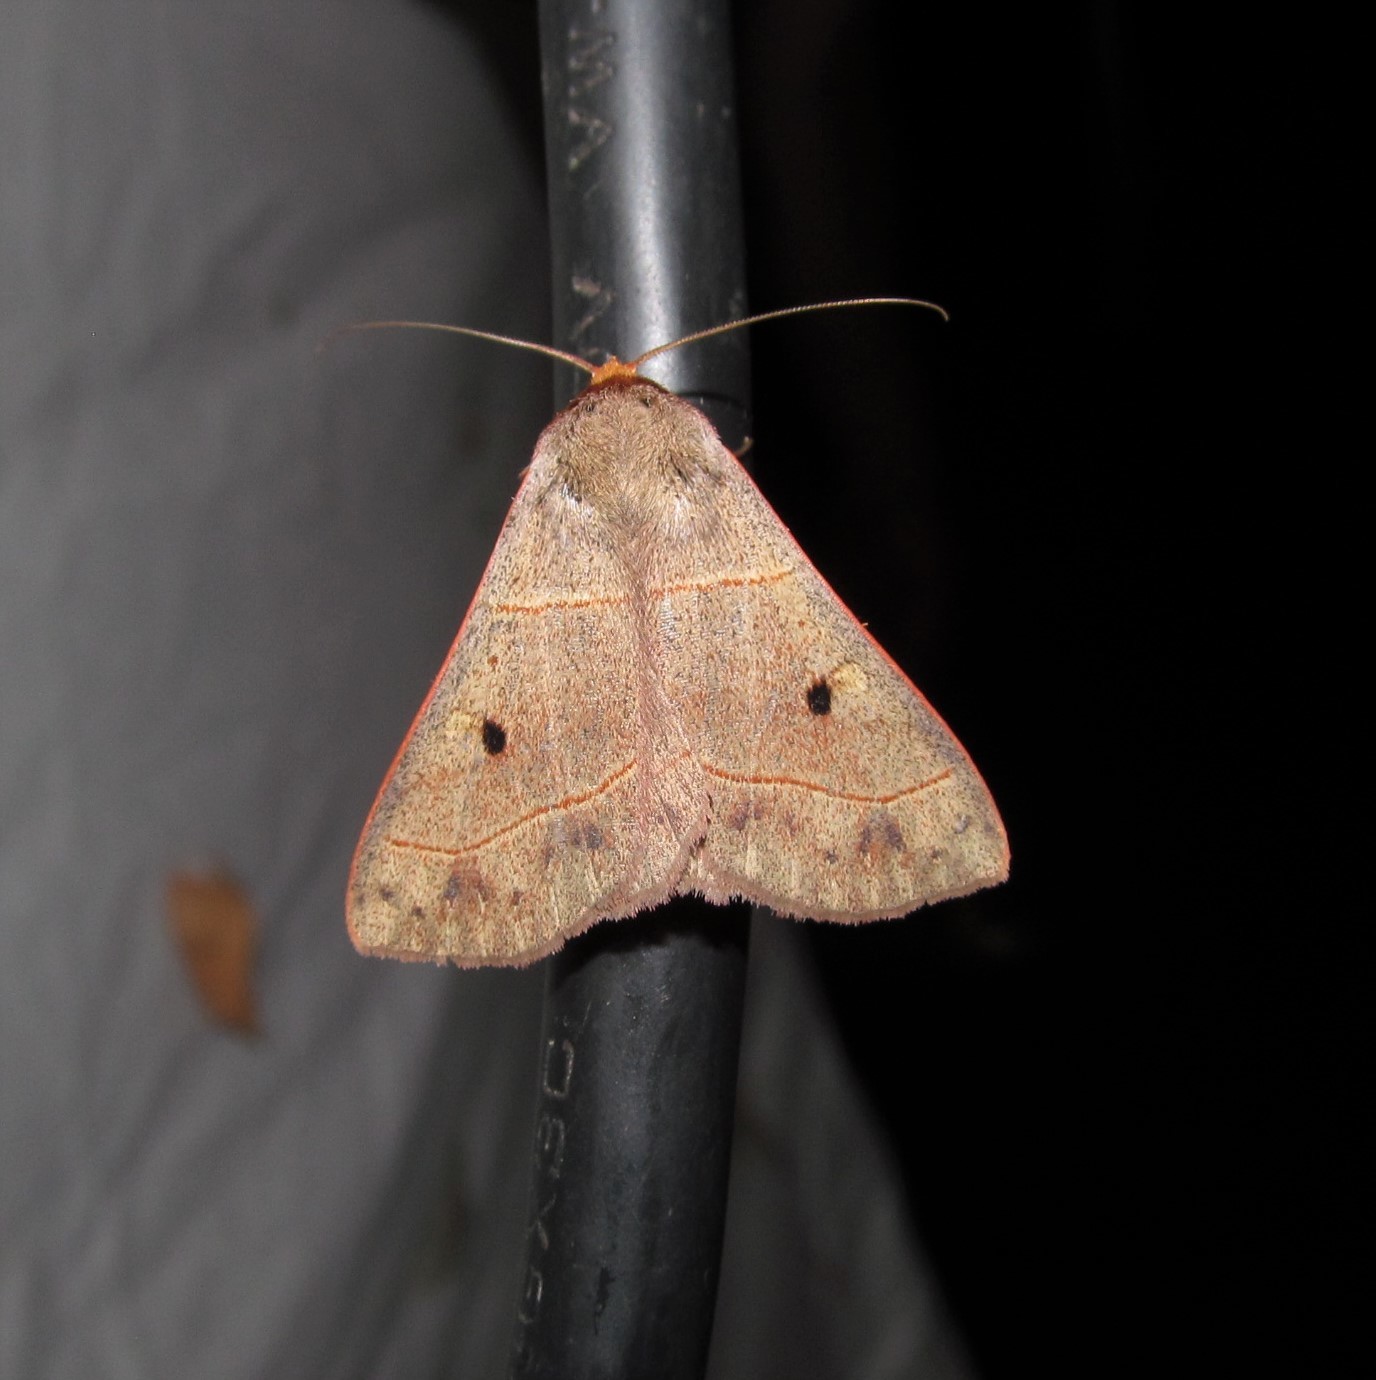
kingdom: Animalia
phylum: Arthropoda
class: Insecta
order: Lepidoptera
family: Erebidae
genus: Panopoda
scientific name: Panopoda rufimargo
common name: Red-lined panopoda moth
